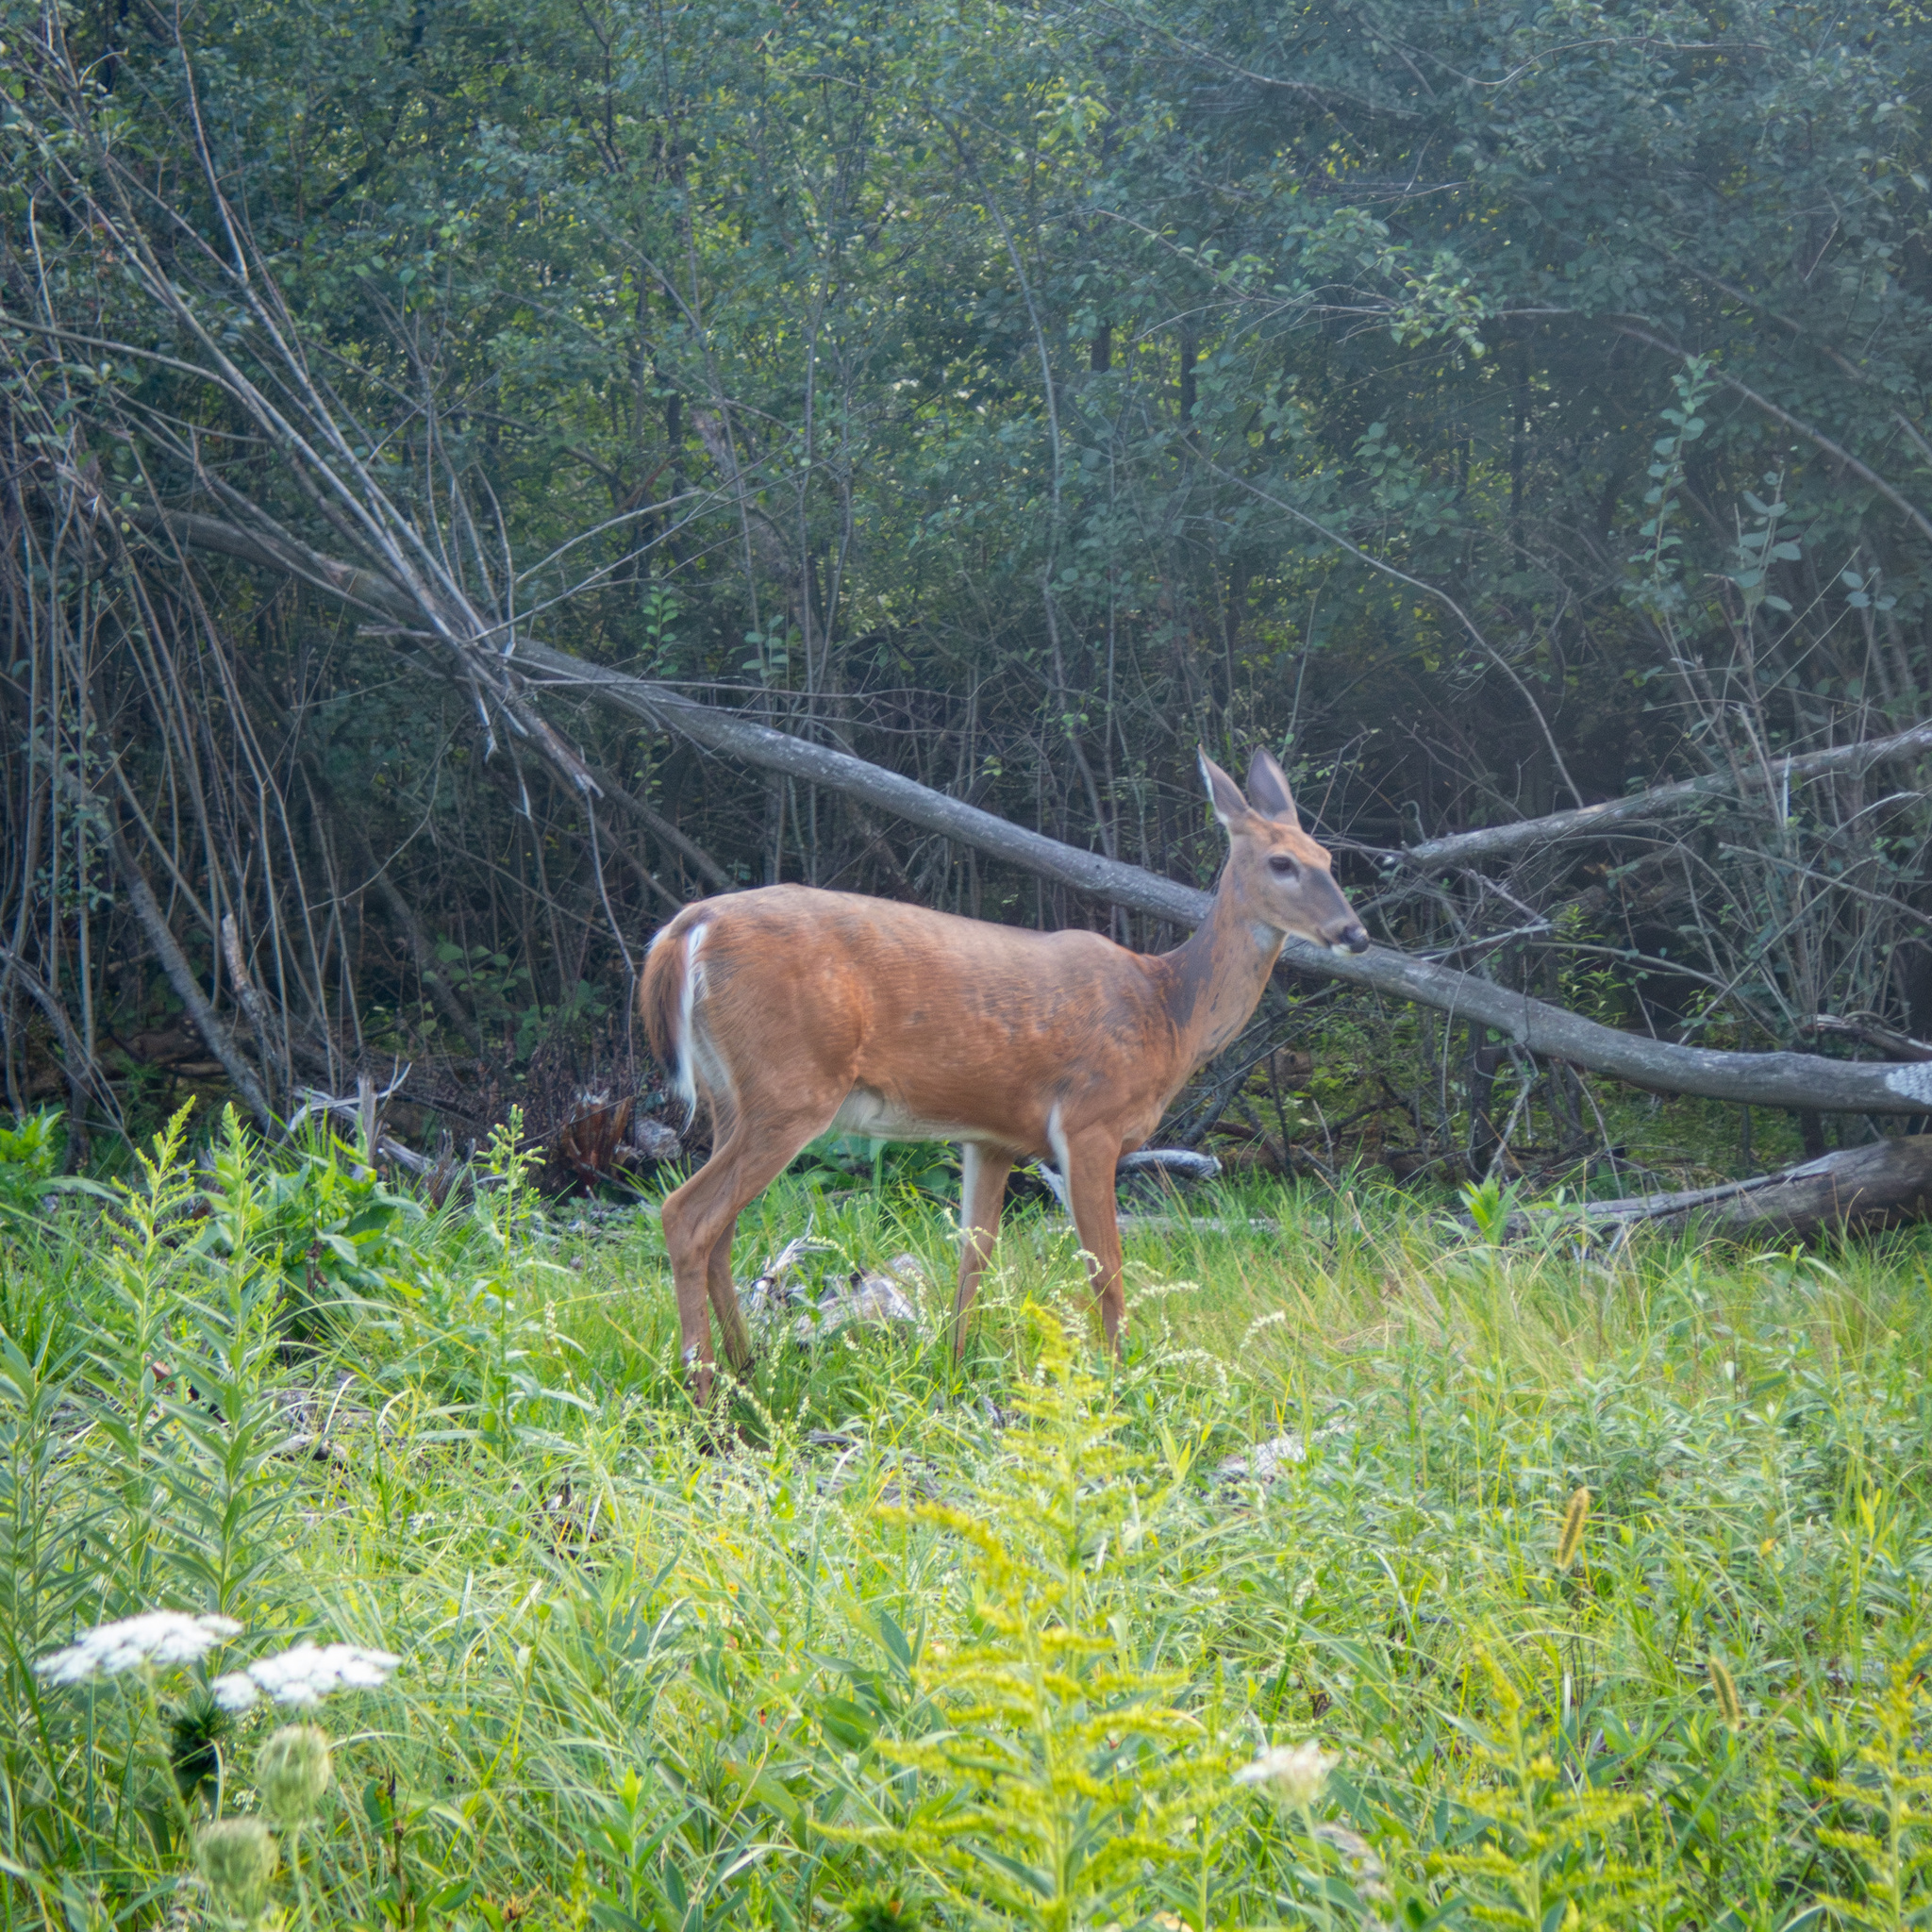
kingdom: Animalia
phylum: Chordata
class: Mammalia
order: Artiodactyla
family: Cervidae
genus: Odocoileus
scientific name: Odocoileus virginianus
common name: White-tailed deer
